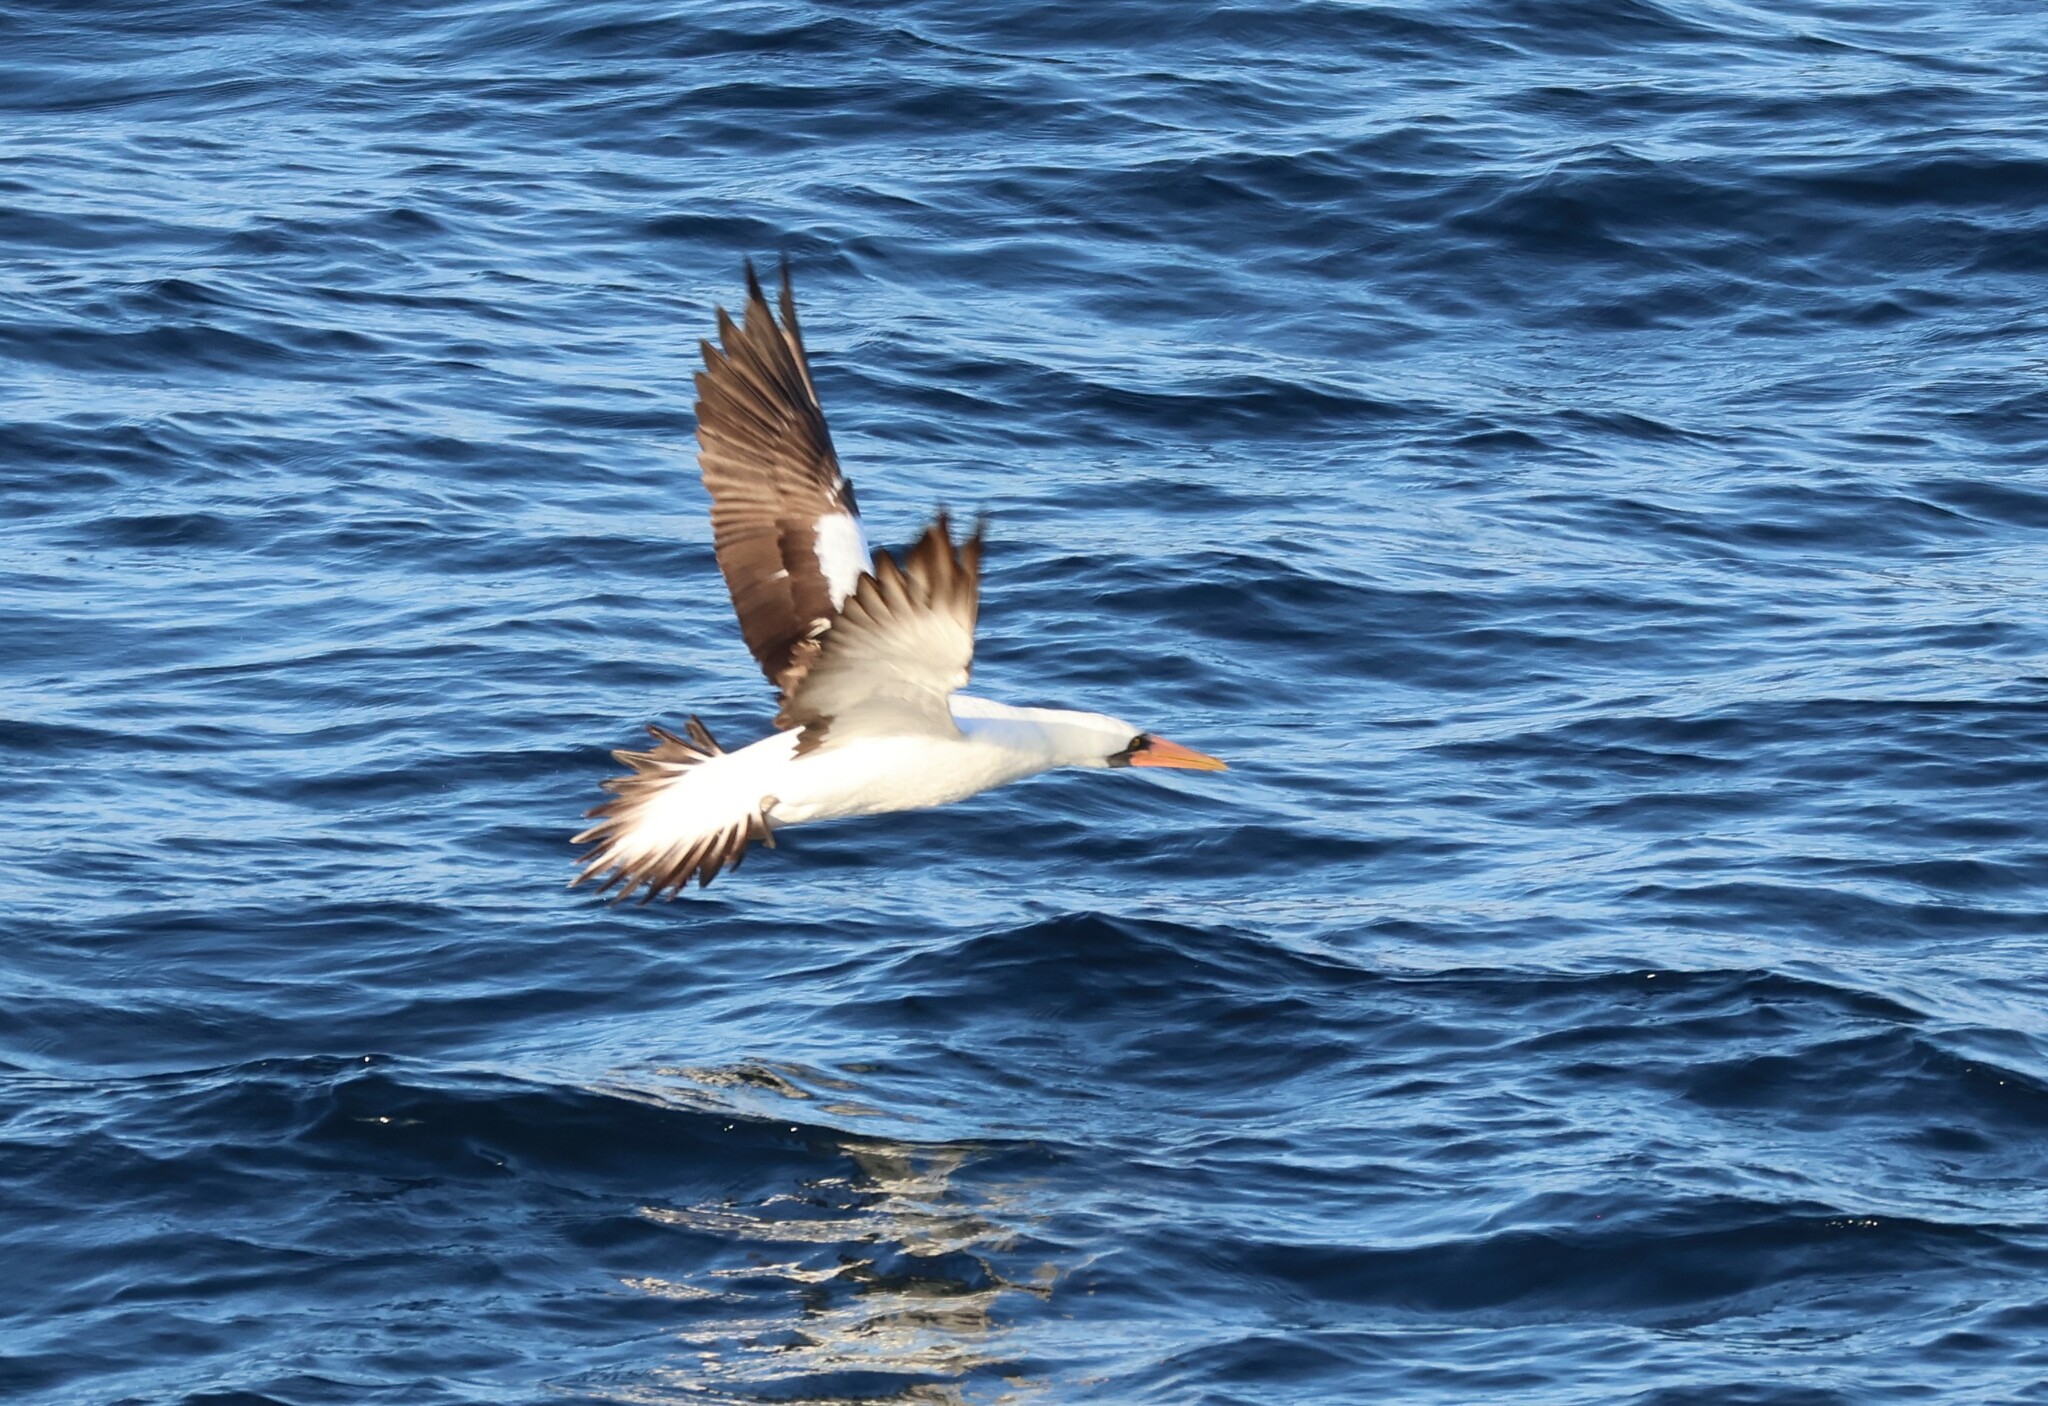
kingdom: Animalia
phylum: Chordata
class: Aves
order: Suliformes
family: Sulidae
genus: Sula
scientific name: Sula granti
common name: Nazca booby
